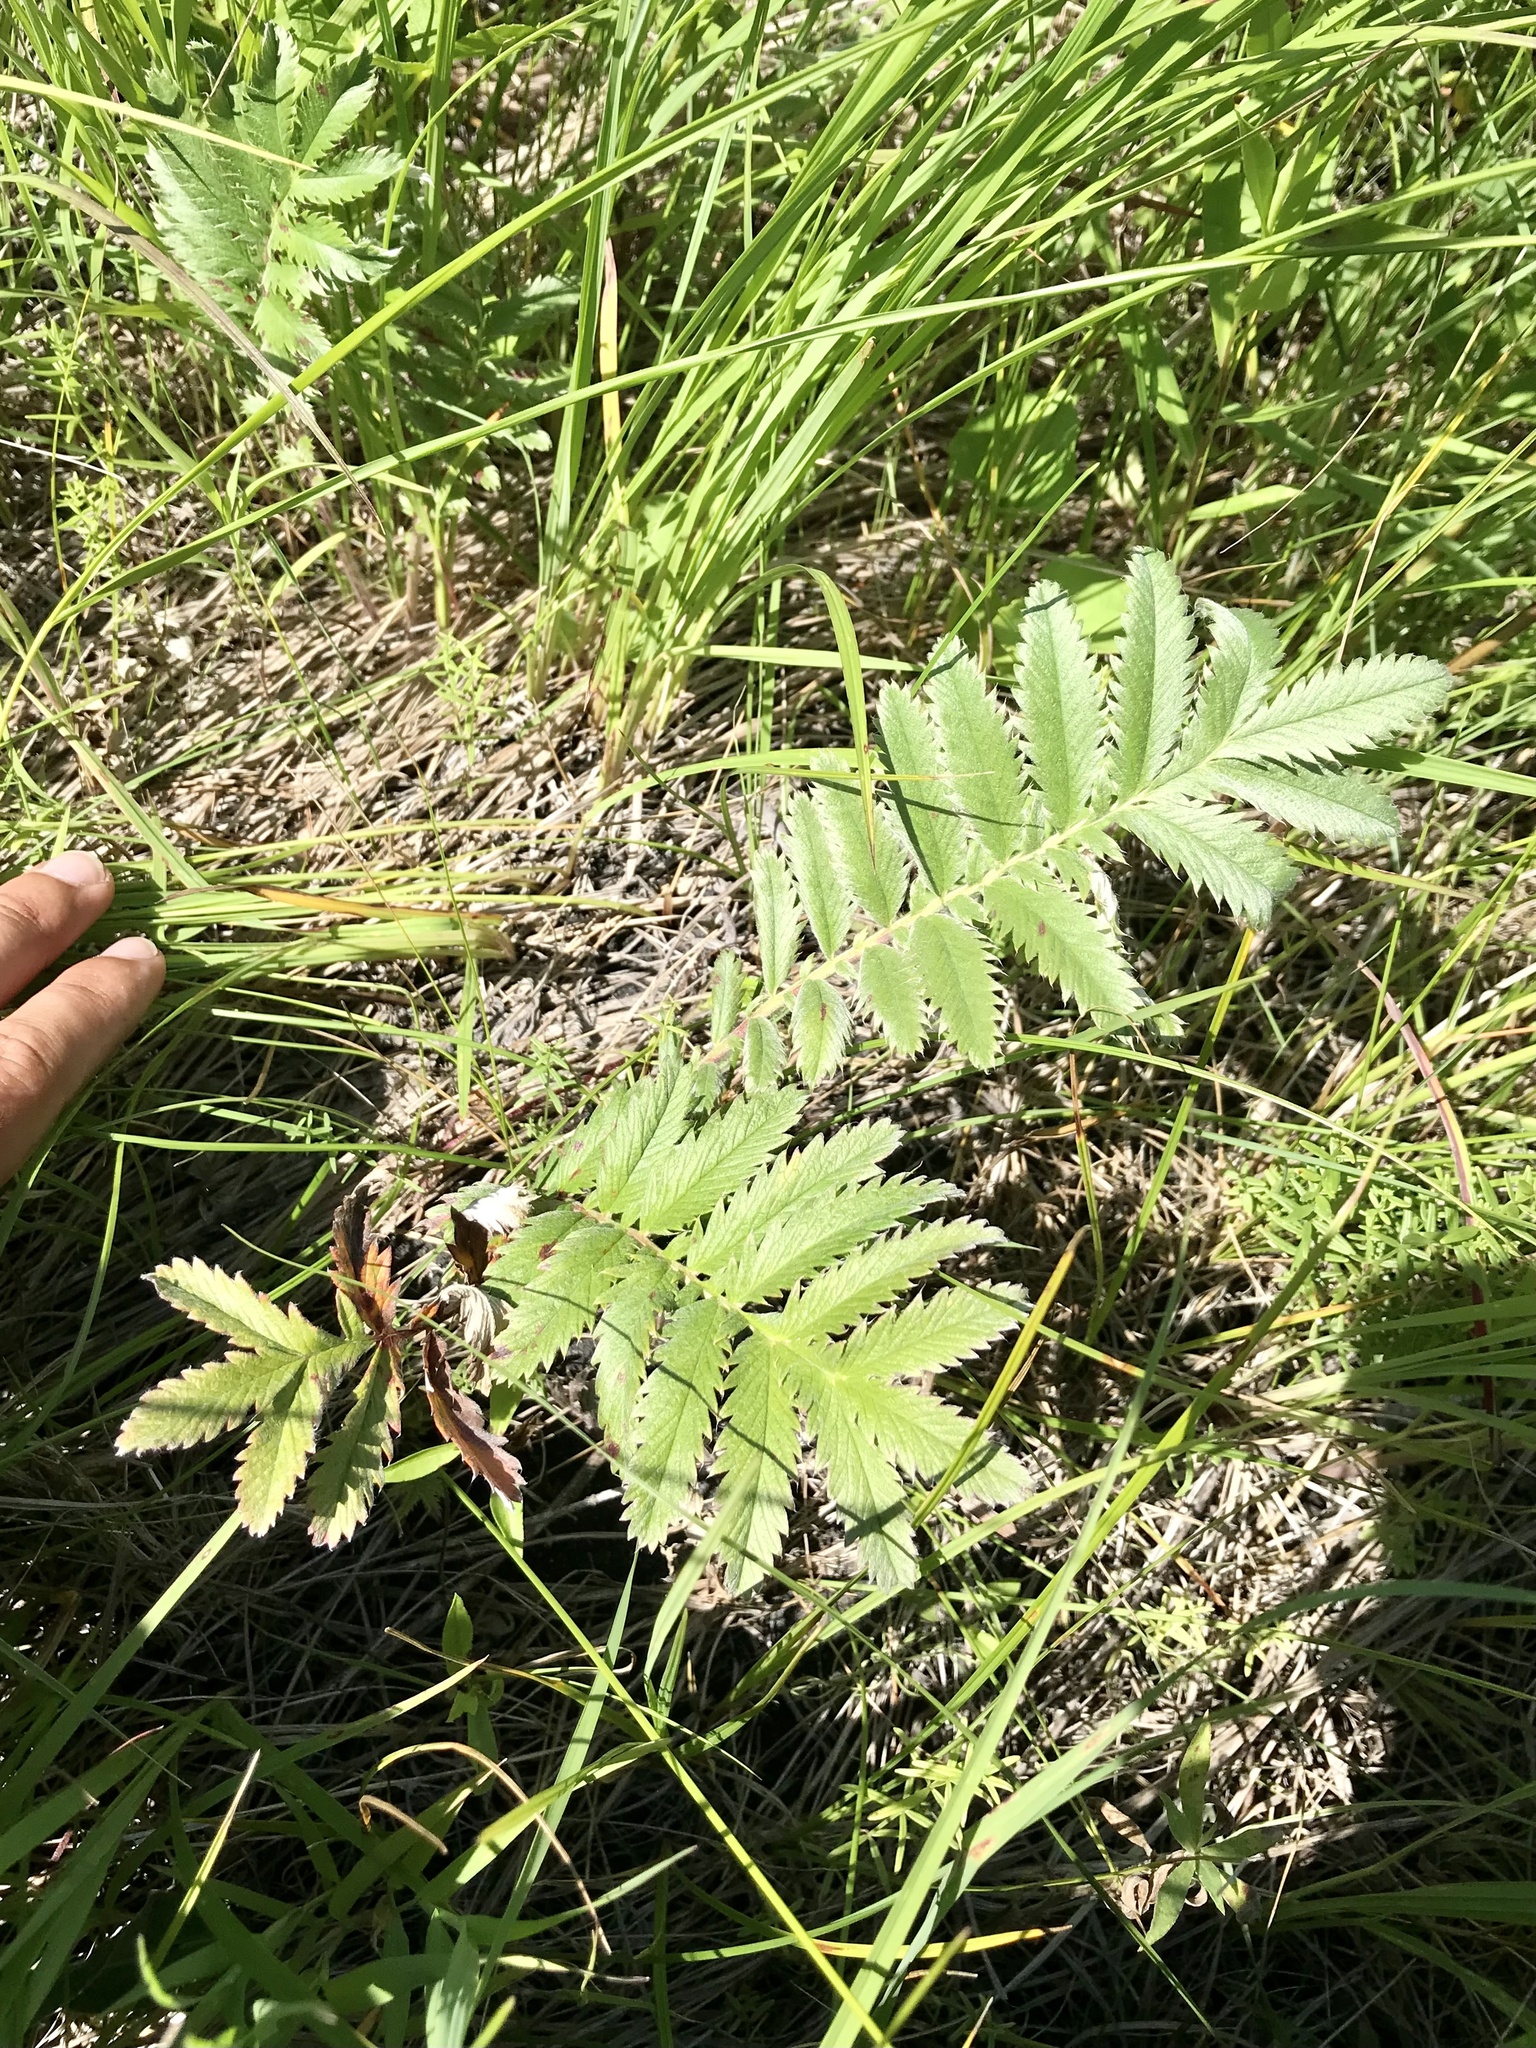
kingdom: Plantae
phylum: Tracheophyta
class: Magnoliopsida
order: Rosales
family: Rosaceae
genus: Argentina
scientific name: Argentina anserina
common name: Common silverweed
